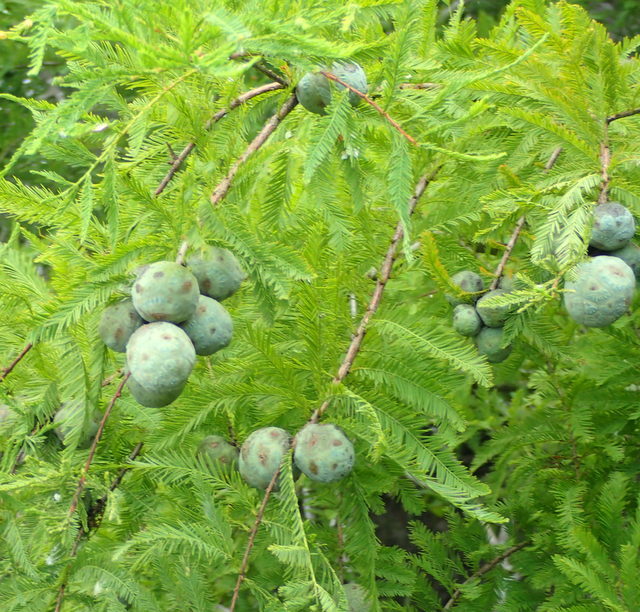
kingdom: Plantae
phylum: Tracheophyta
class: Pinopsida
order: Pinales
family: Cupressaceae
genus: Taxodium
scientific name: Taxodium distichum
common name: Bald cypress
